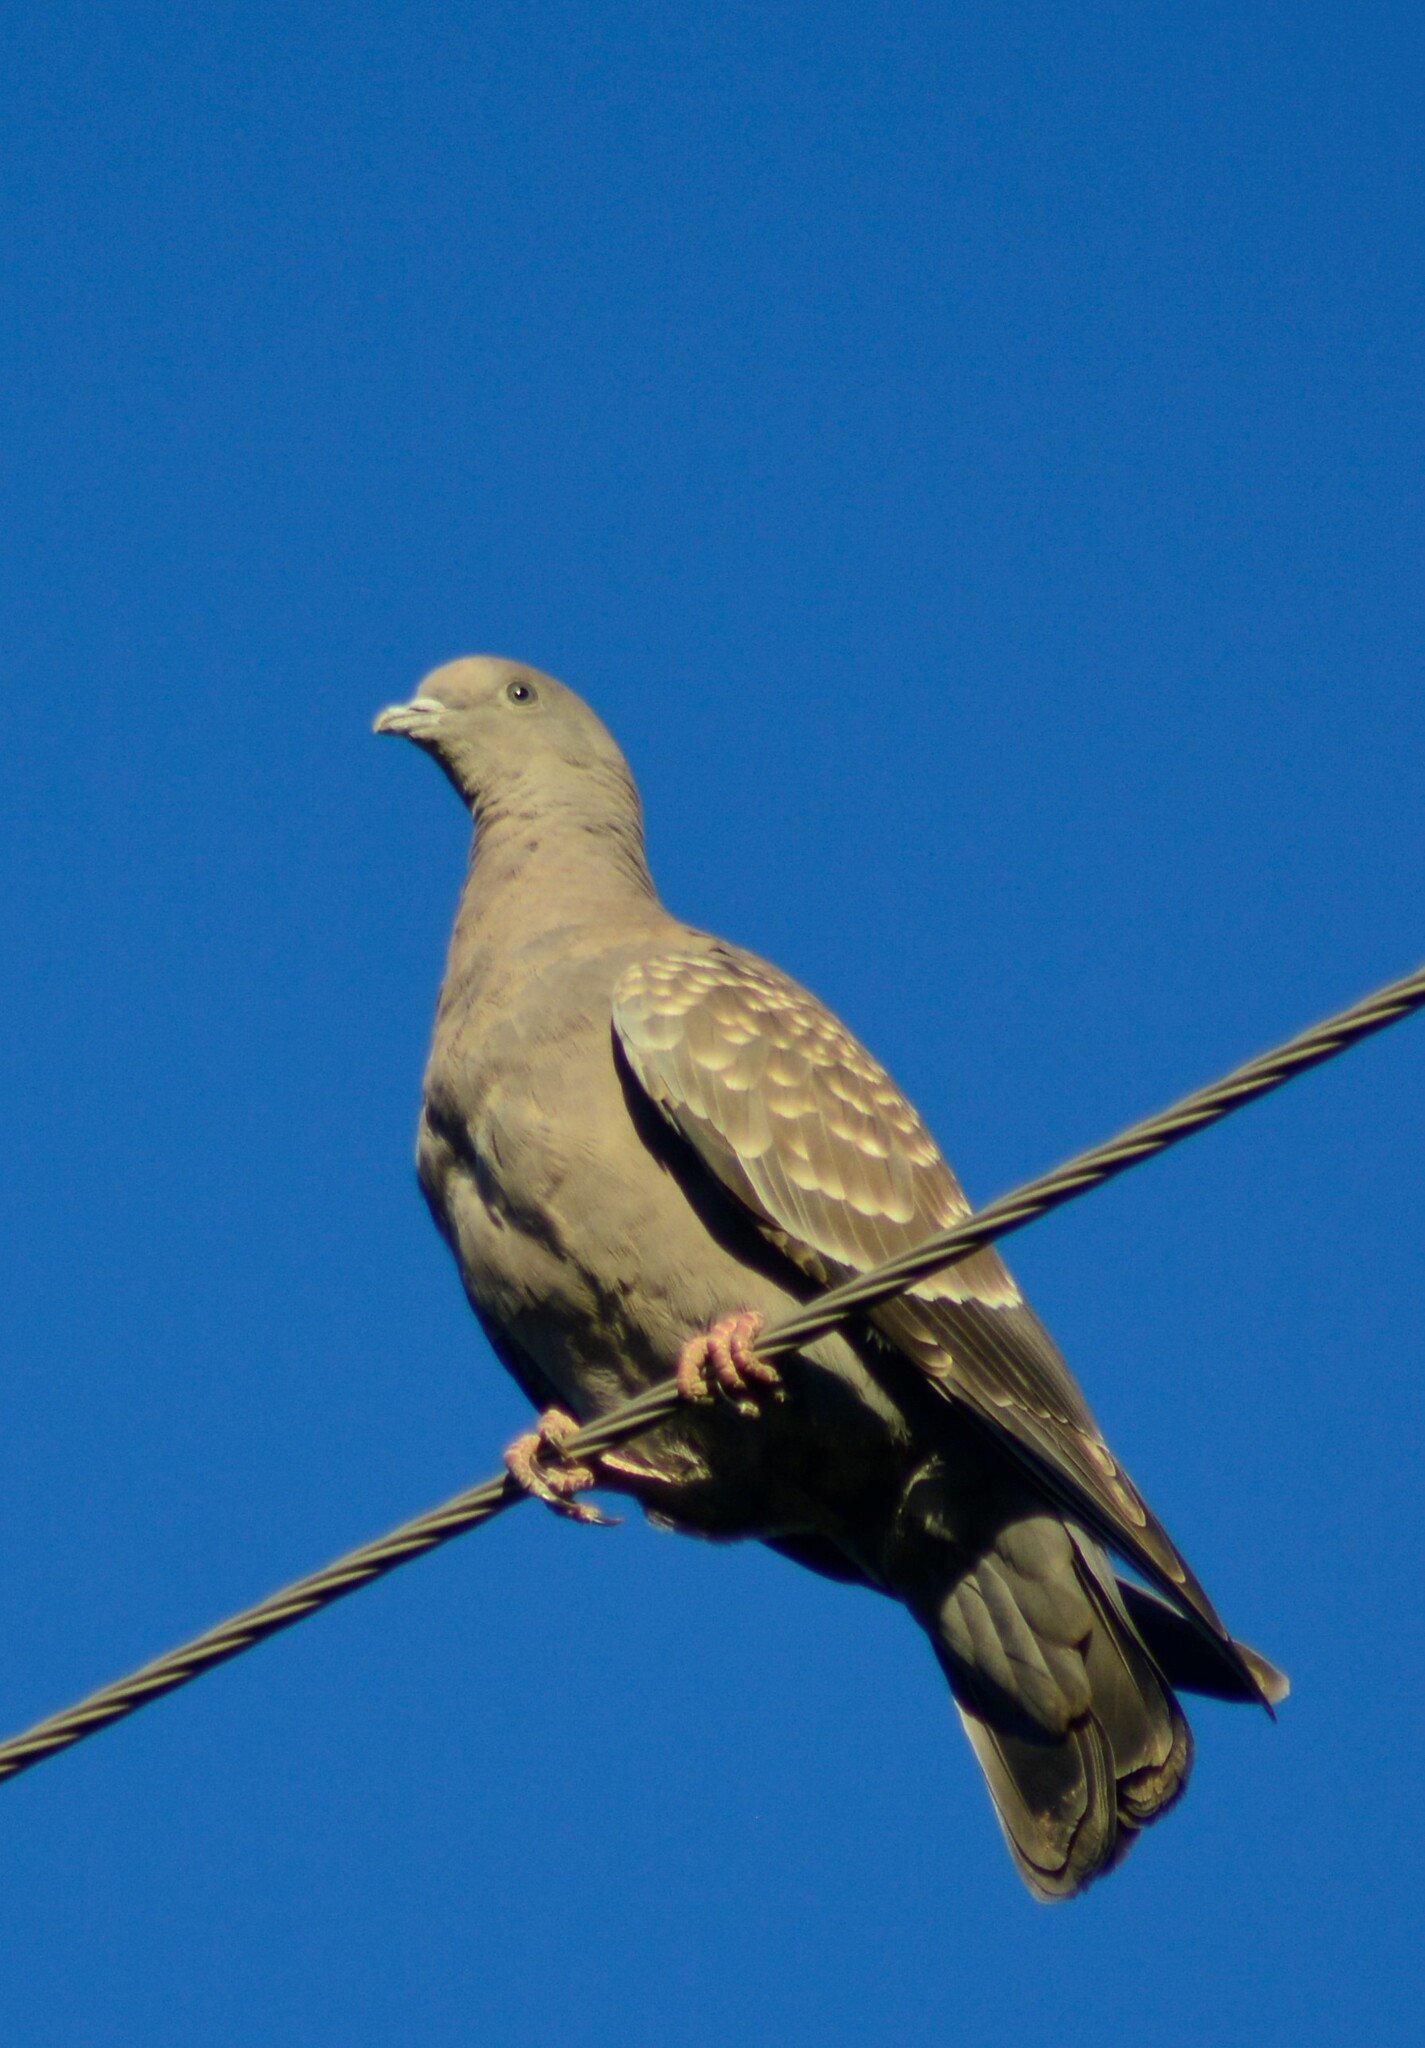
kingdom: Animalia
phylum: Chordata
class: Aves
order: Columbiformes
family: Columbidae
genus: Patagioenas
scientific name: Patagioenas maculosa
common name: Spot-winged pigeon
